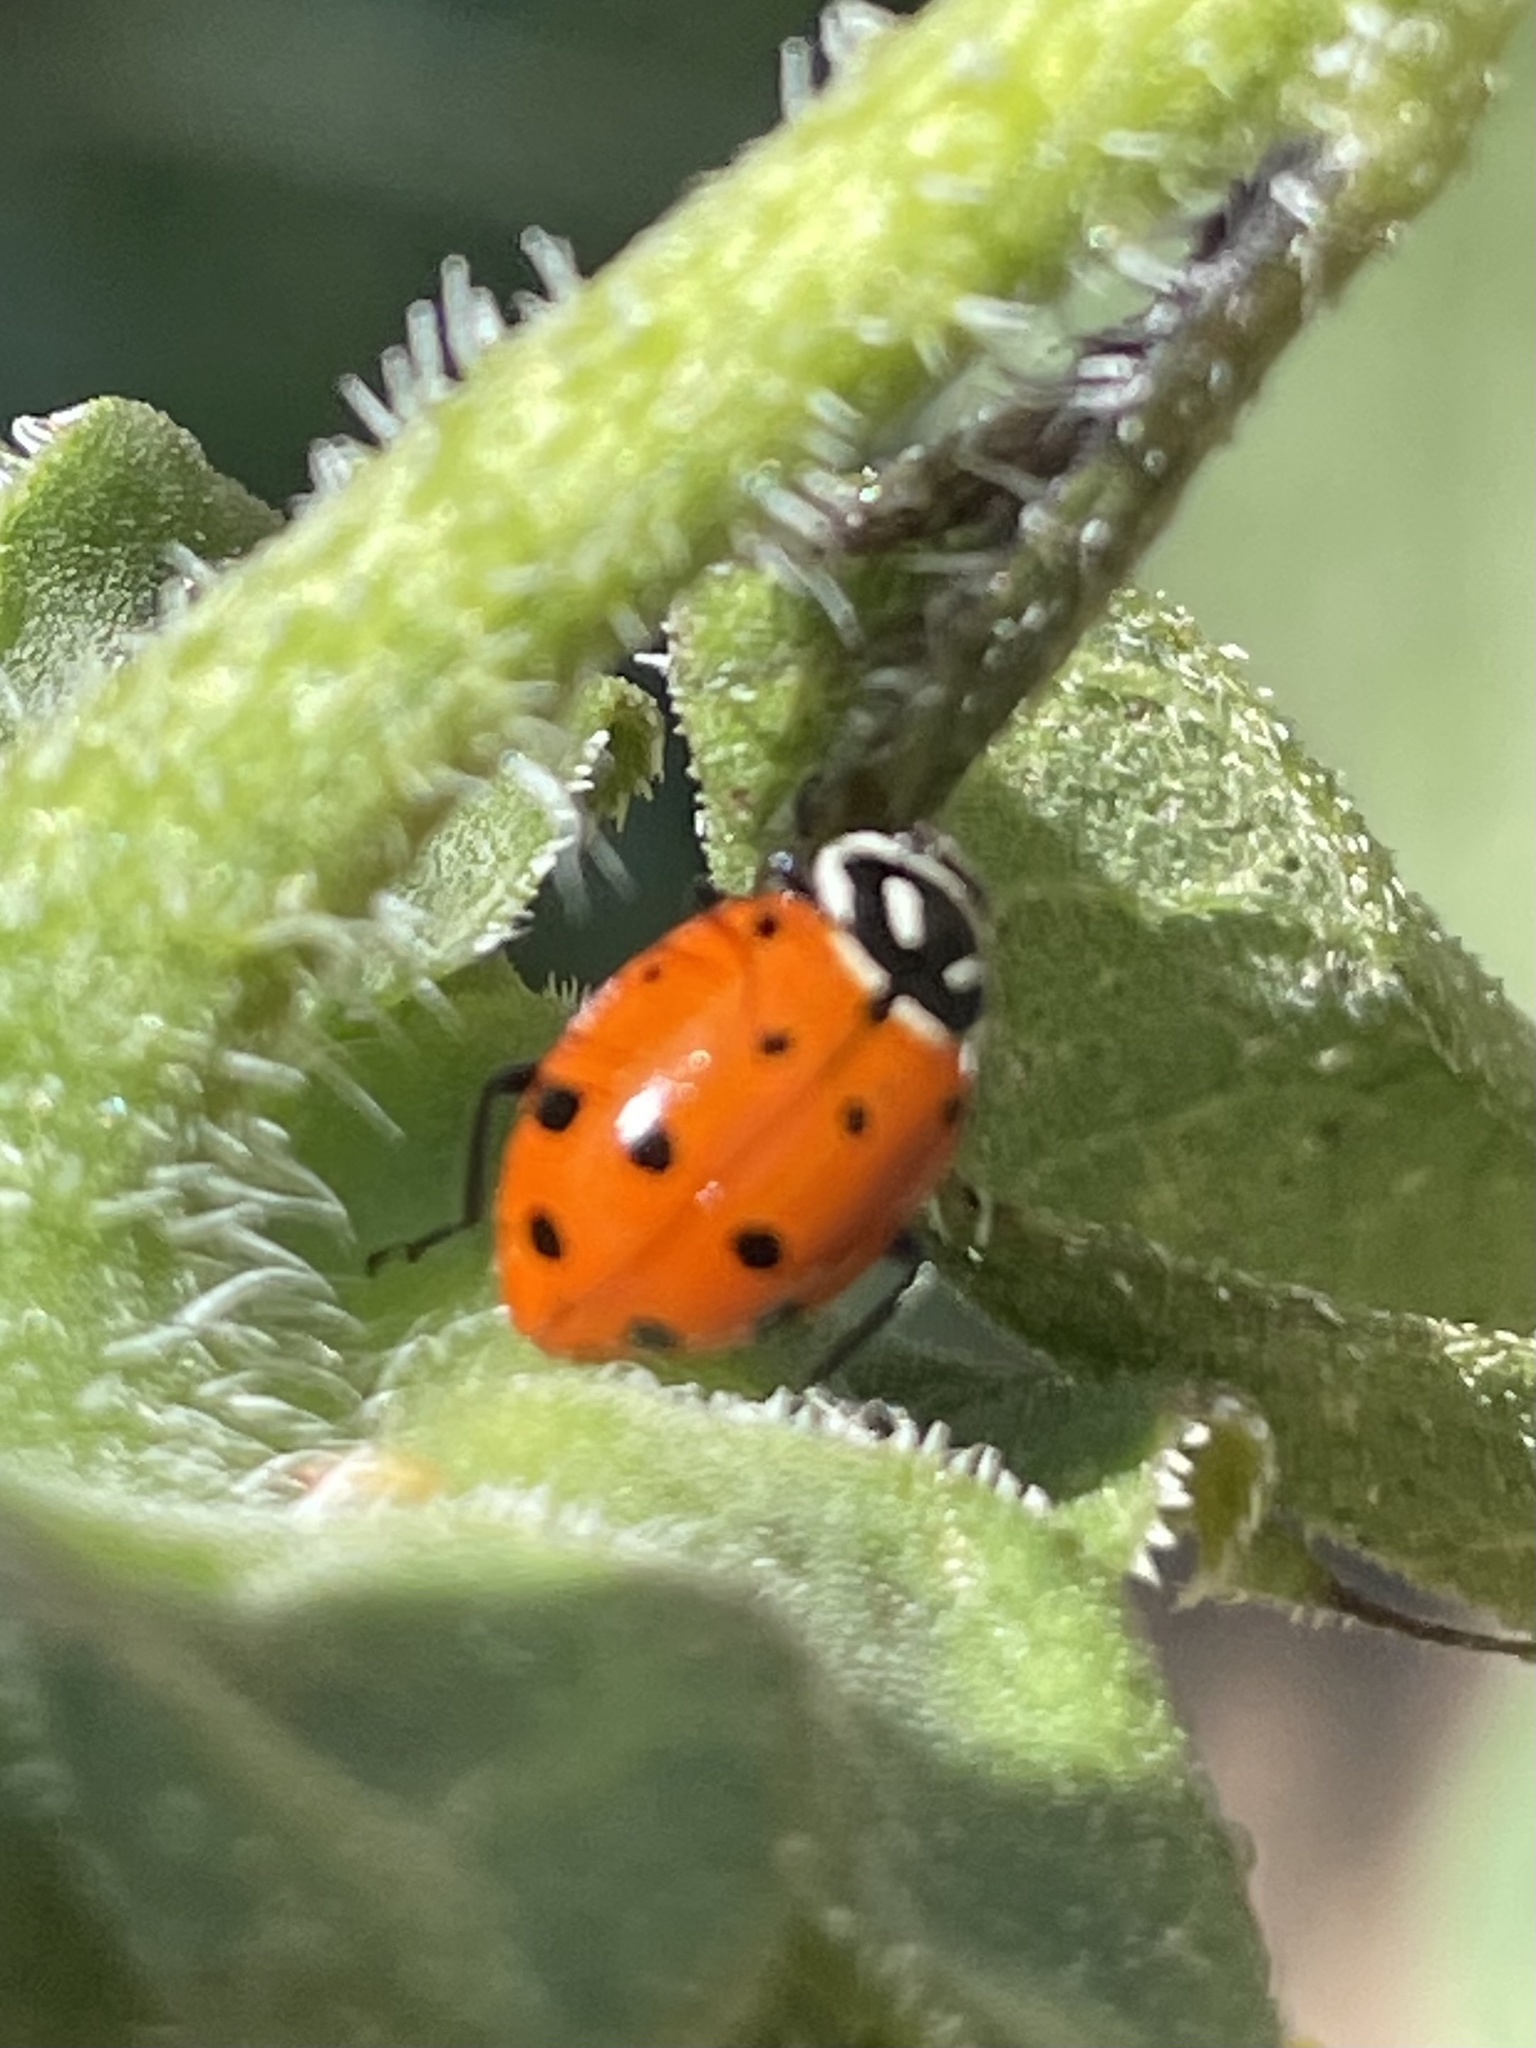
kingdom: Animalia
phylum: Arthropoda
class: Insecta
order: Coleoptera
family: Coccinellidae
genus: Hippodamia
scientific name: Hippodamia convergens
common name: Convergent lady beetle
